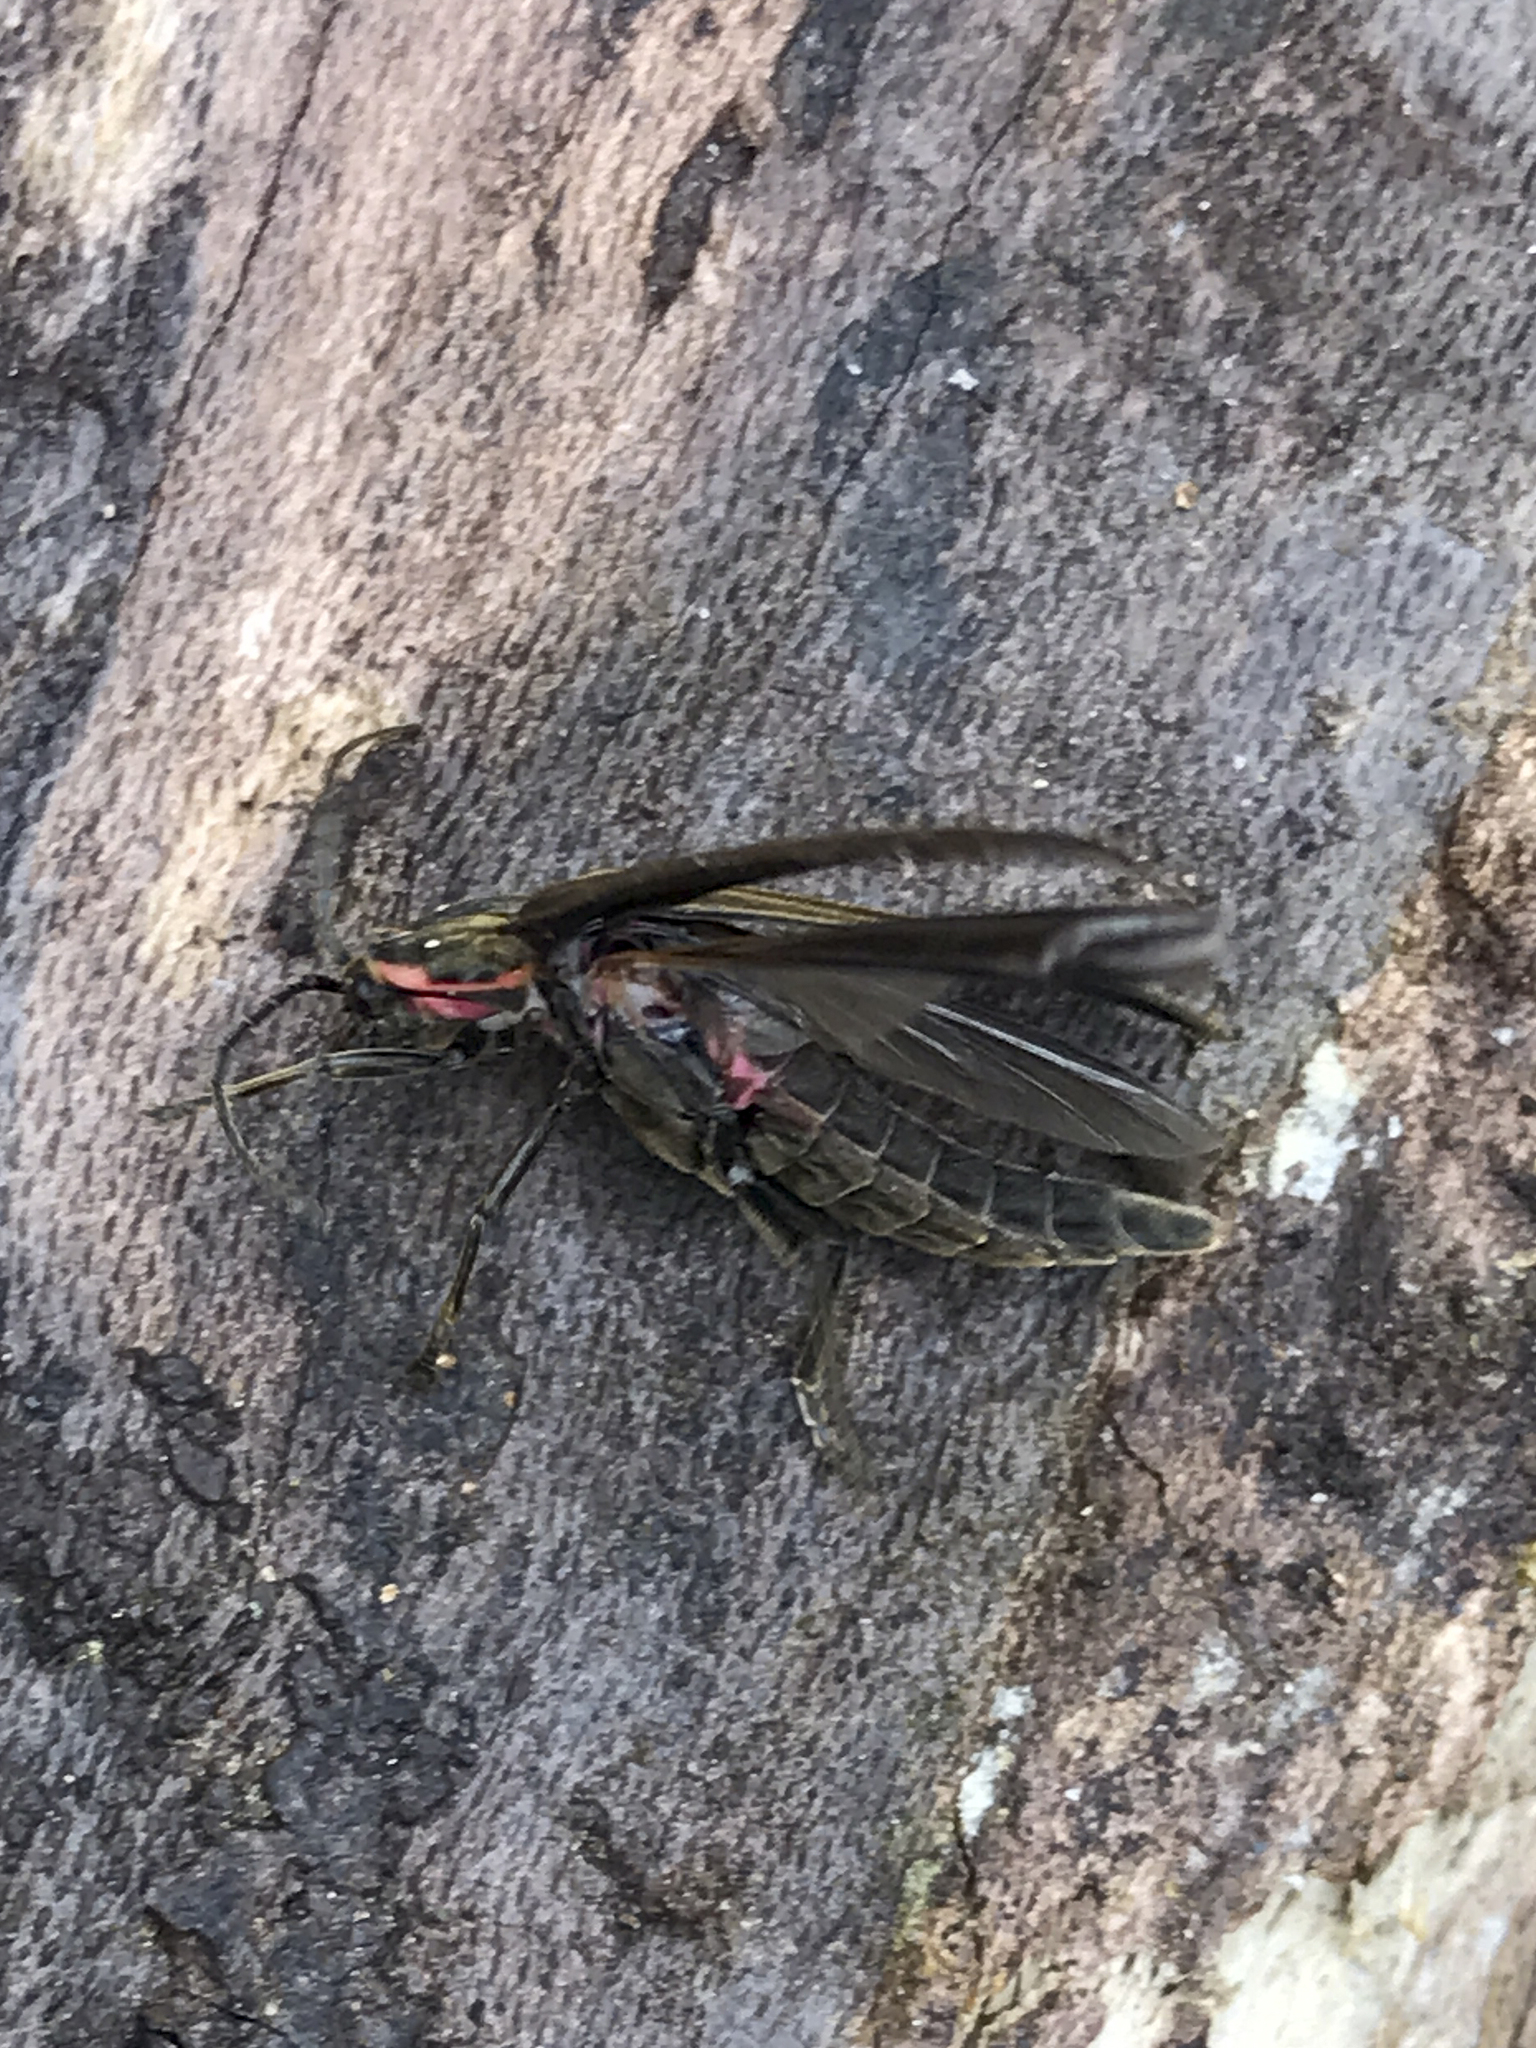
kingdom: Animalia
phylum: Arthropoda
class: Insecta
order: Coleoptera
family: Lampyridae
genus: Photinus
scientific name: Photinus corrusca
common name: Winter firefly
